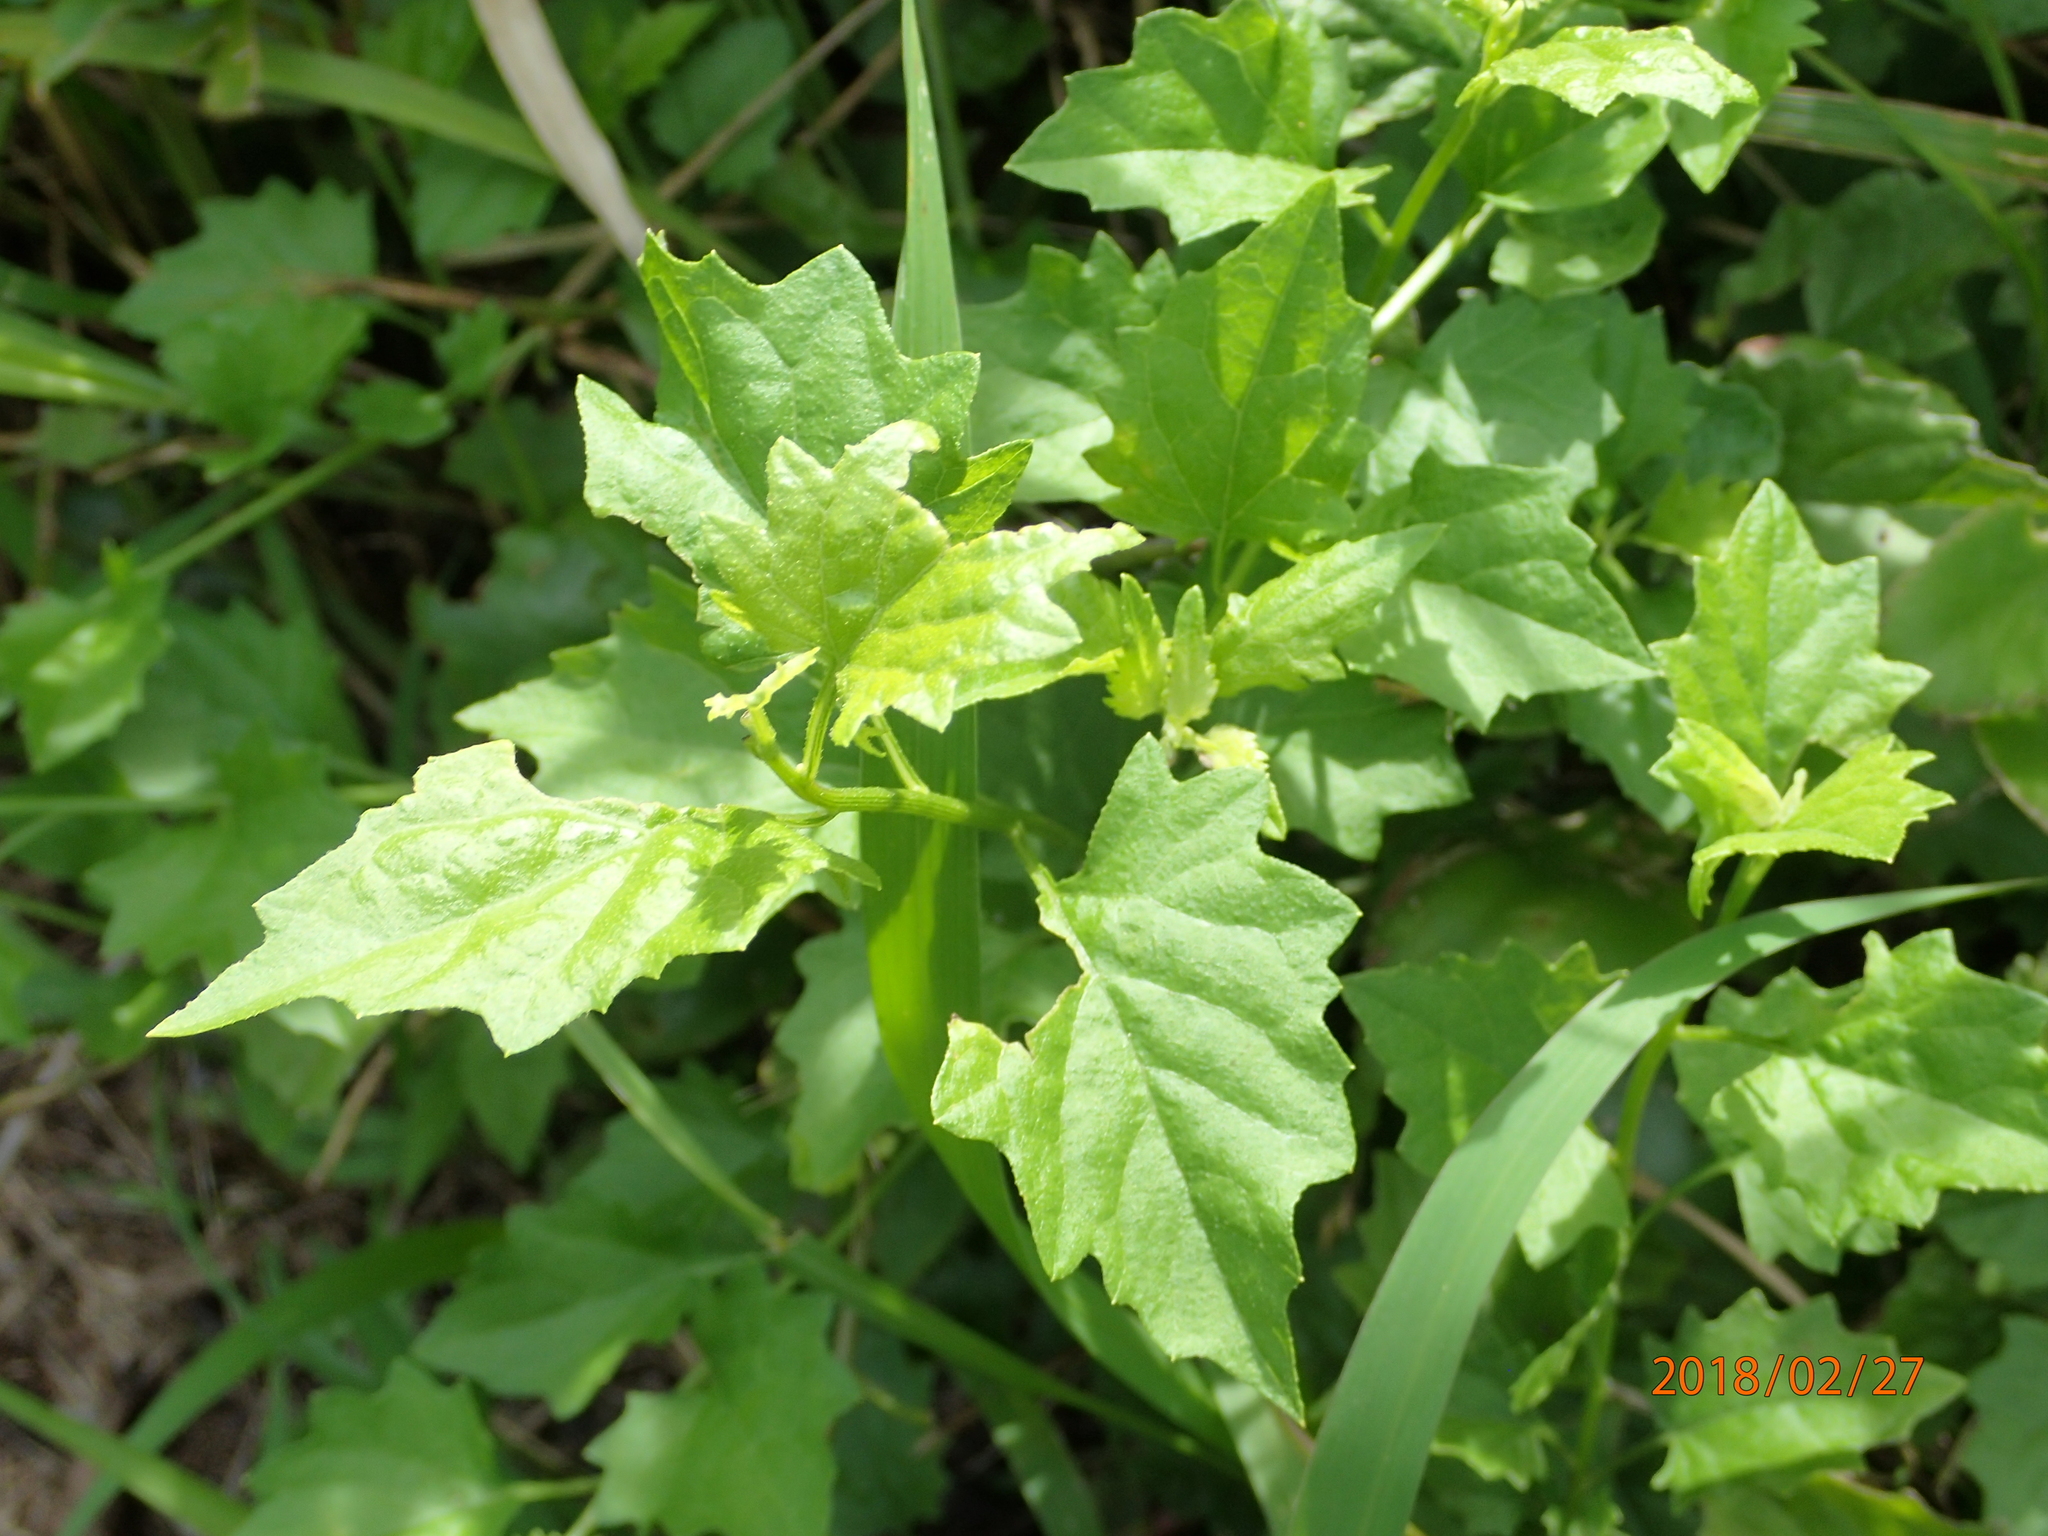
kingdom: Plantae
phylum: Tracheophyta
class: Magnoliopsida
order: Asterales
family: Asteraceae
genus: Microglossa
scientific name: Microglossa mespilifolia
